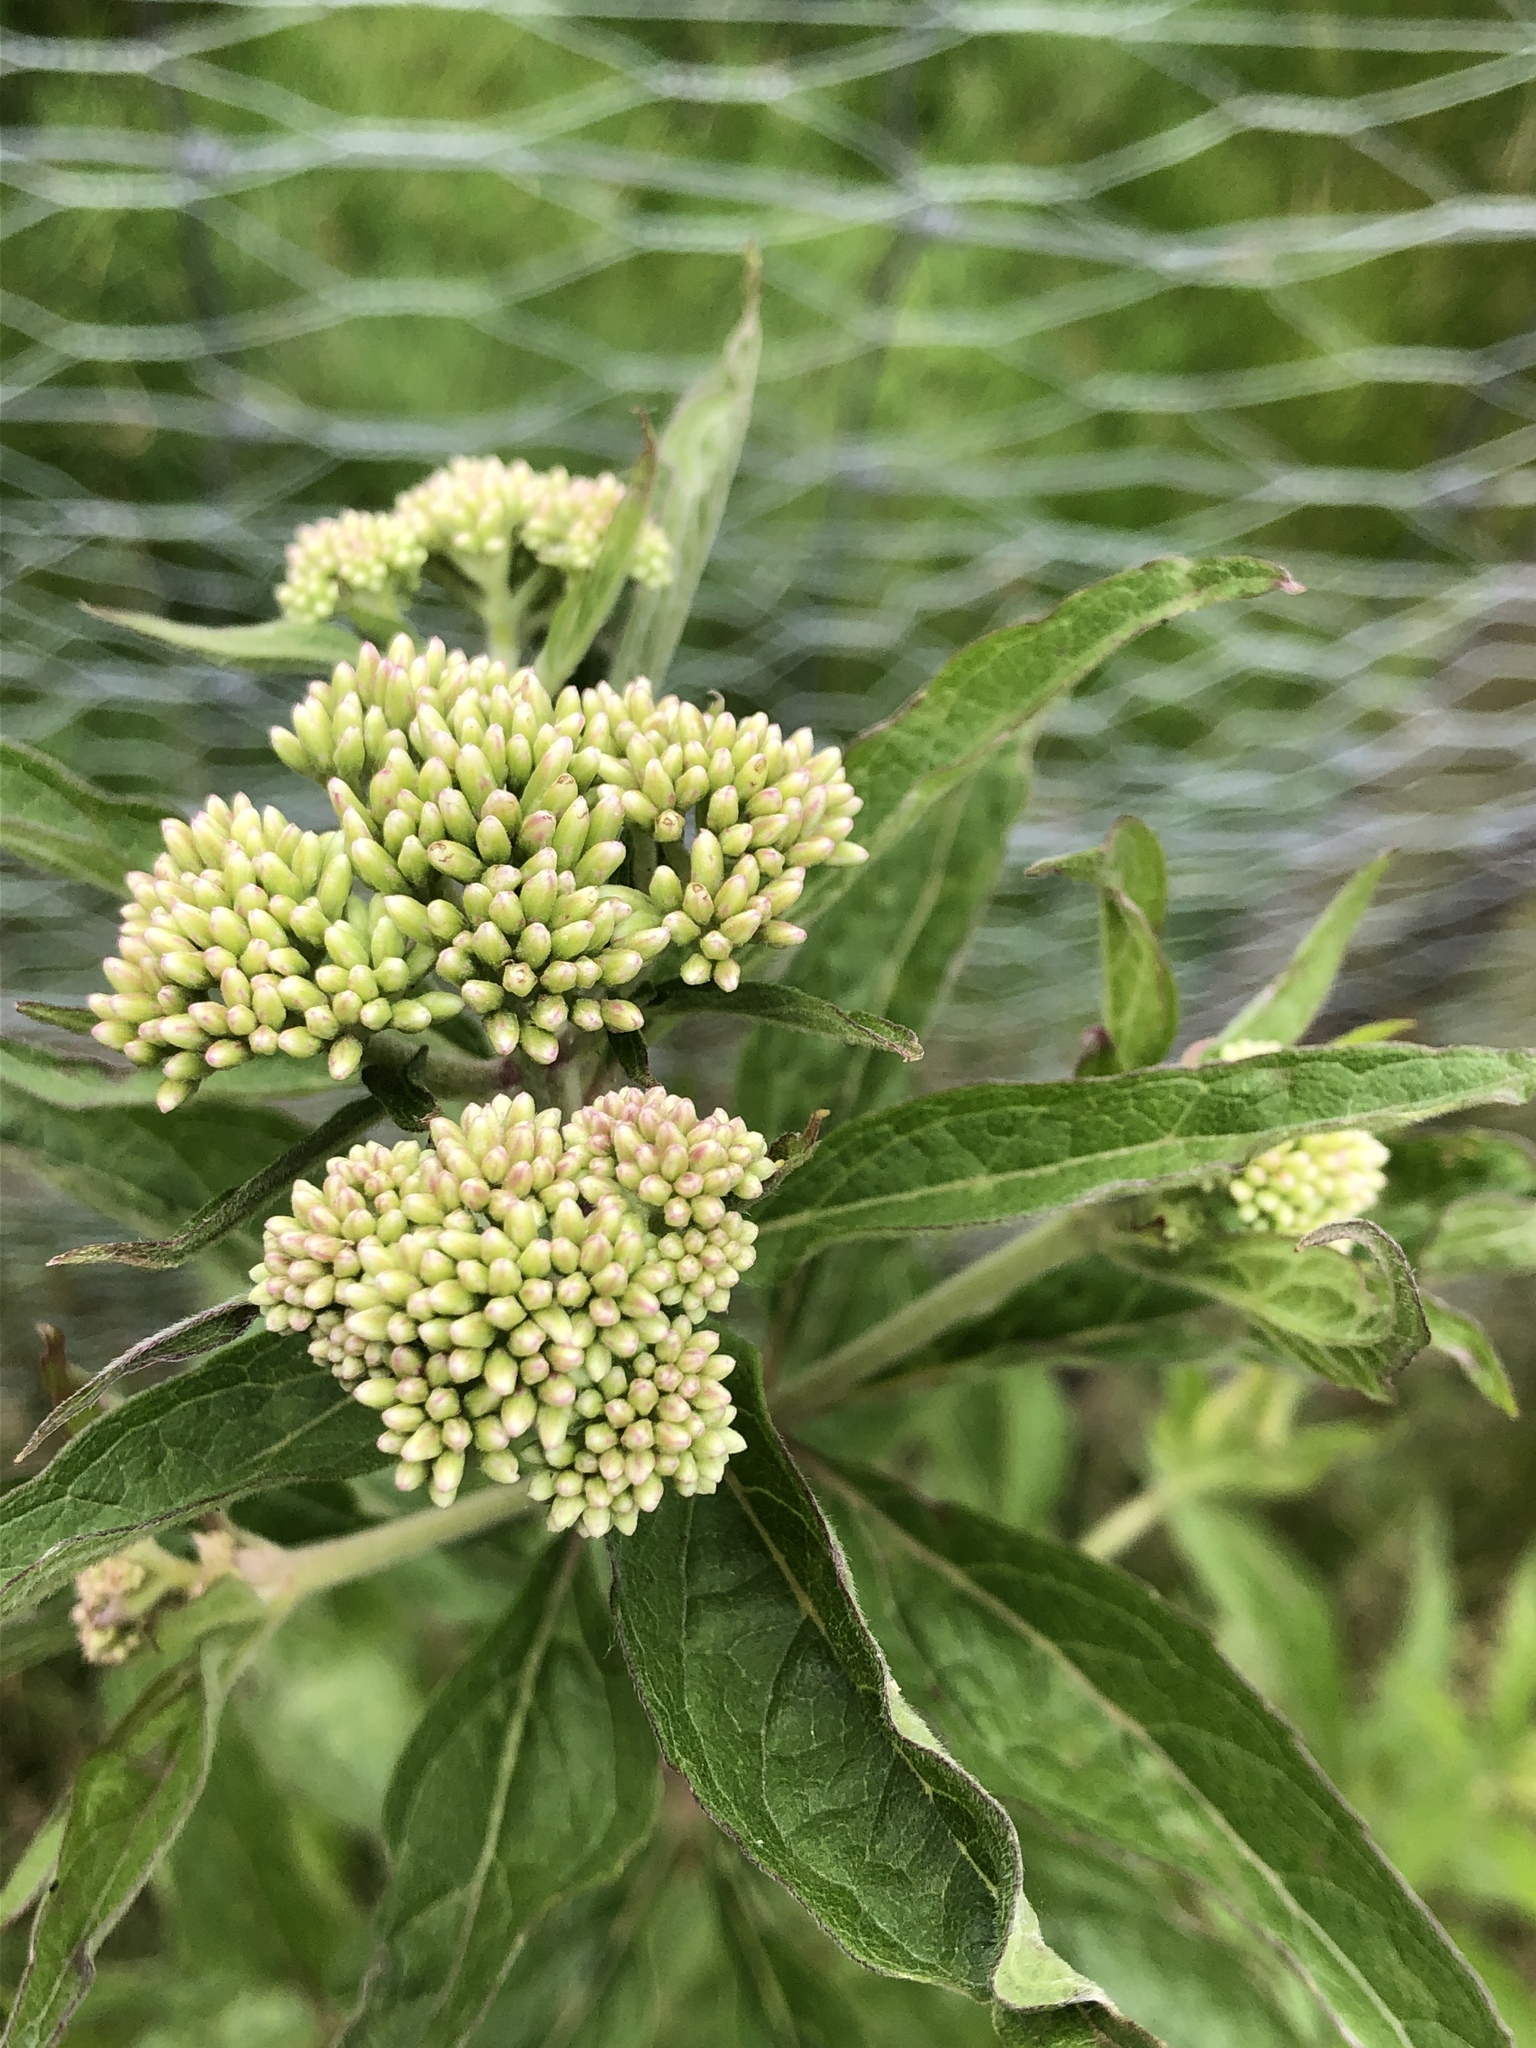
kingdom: Plantae
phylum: Tracheophyta
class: Magnoliopsida
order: Asterales
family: Asteraceae
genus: Eupatorium
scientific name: Eupatorium cannabinum
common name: Hemp-agrimony
